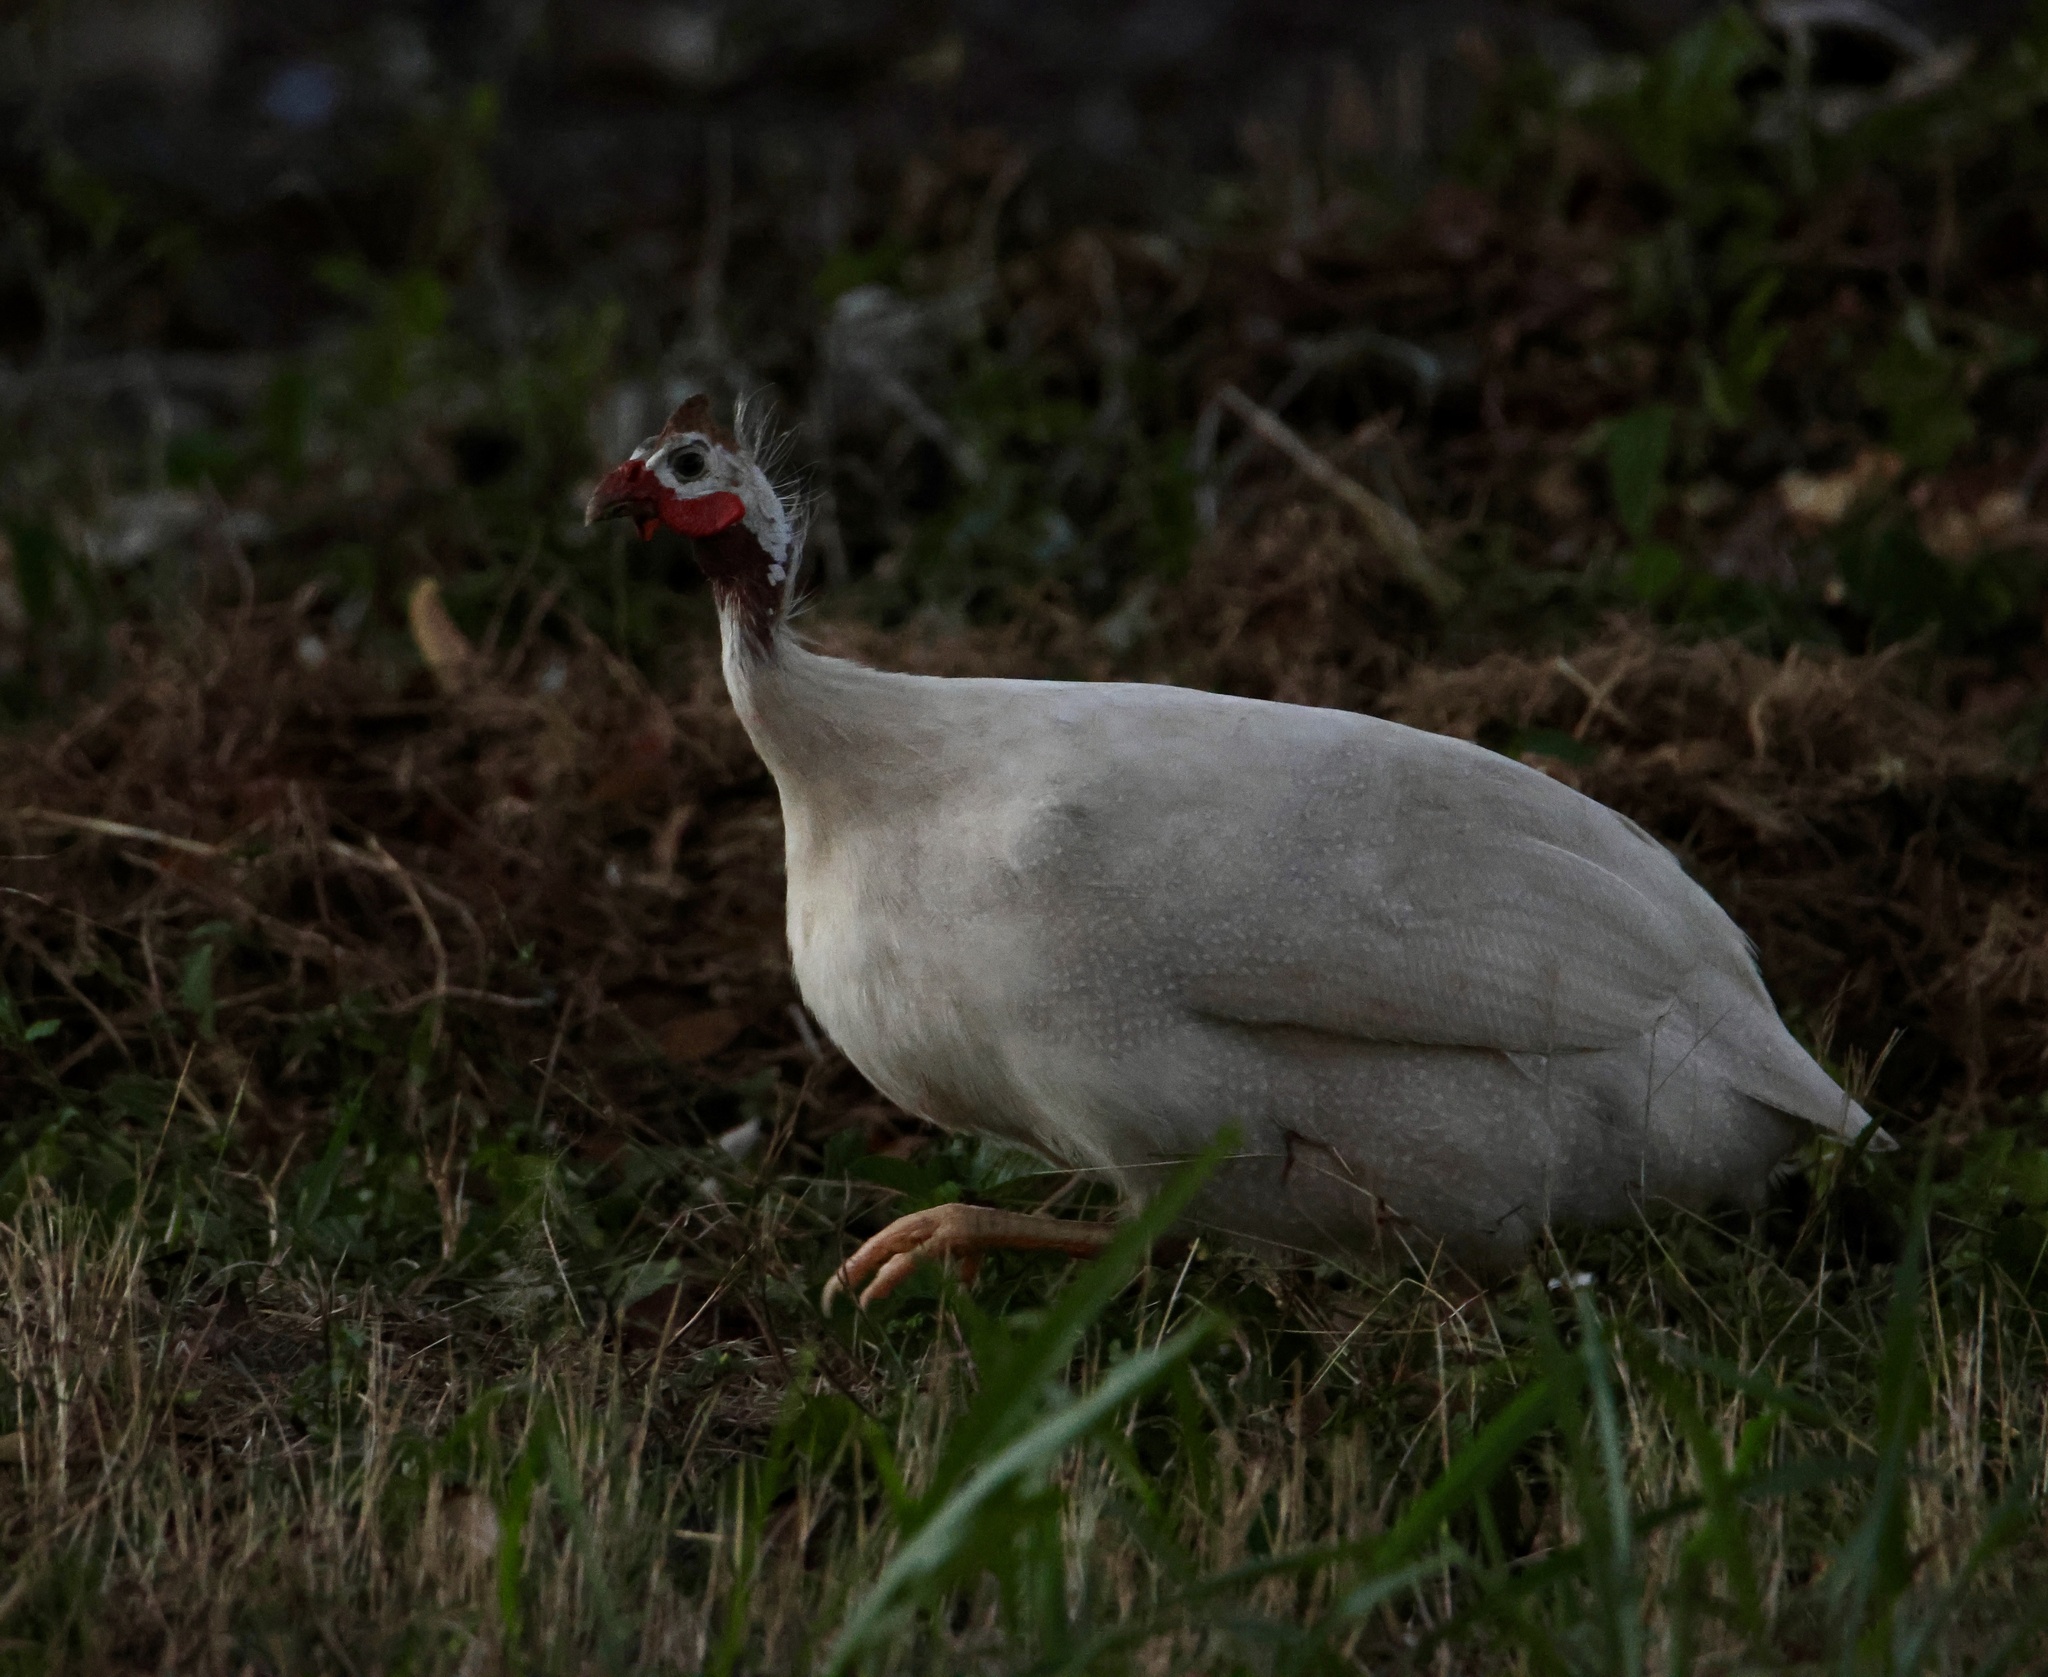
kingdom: Animalia
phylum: Chordata
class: Aves
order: Galliformes
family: Numididae
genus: Numida
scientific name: Numida meleagris
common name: Helmeted guineafowl
